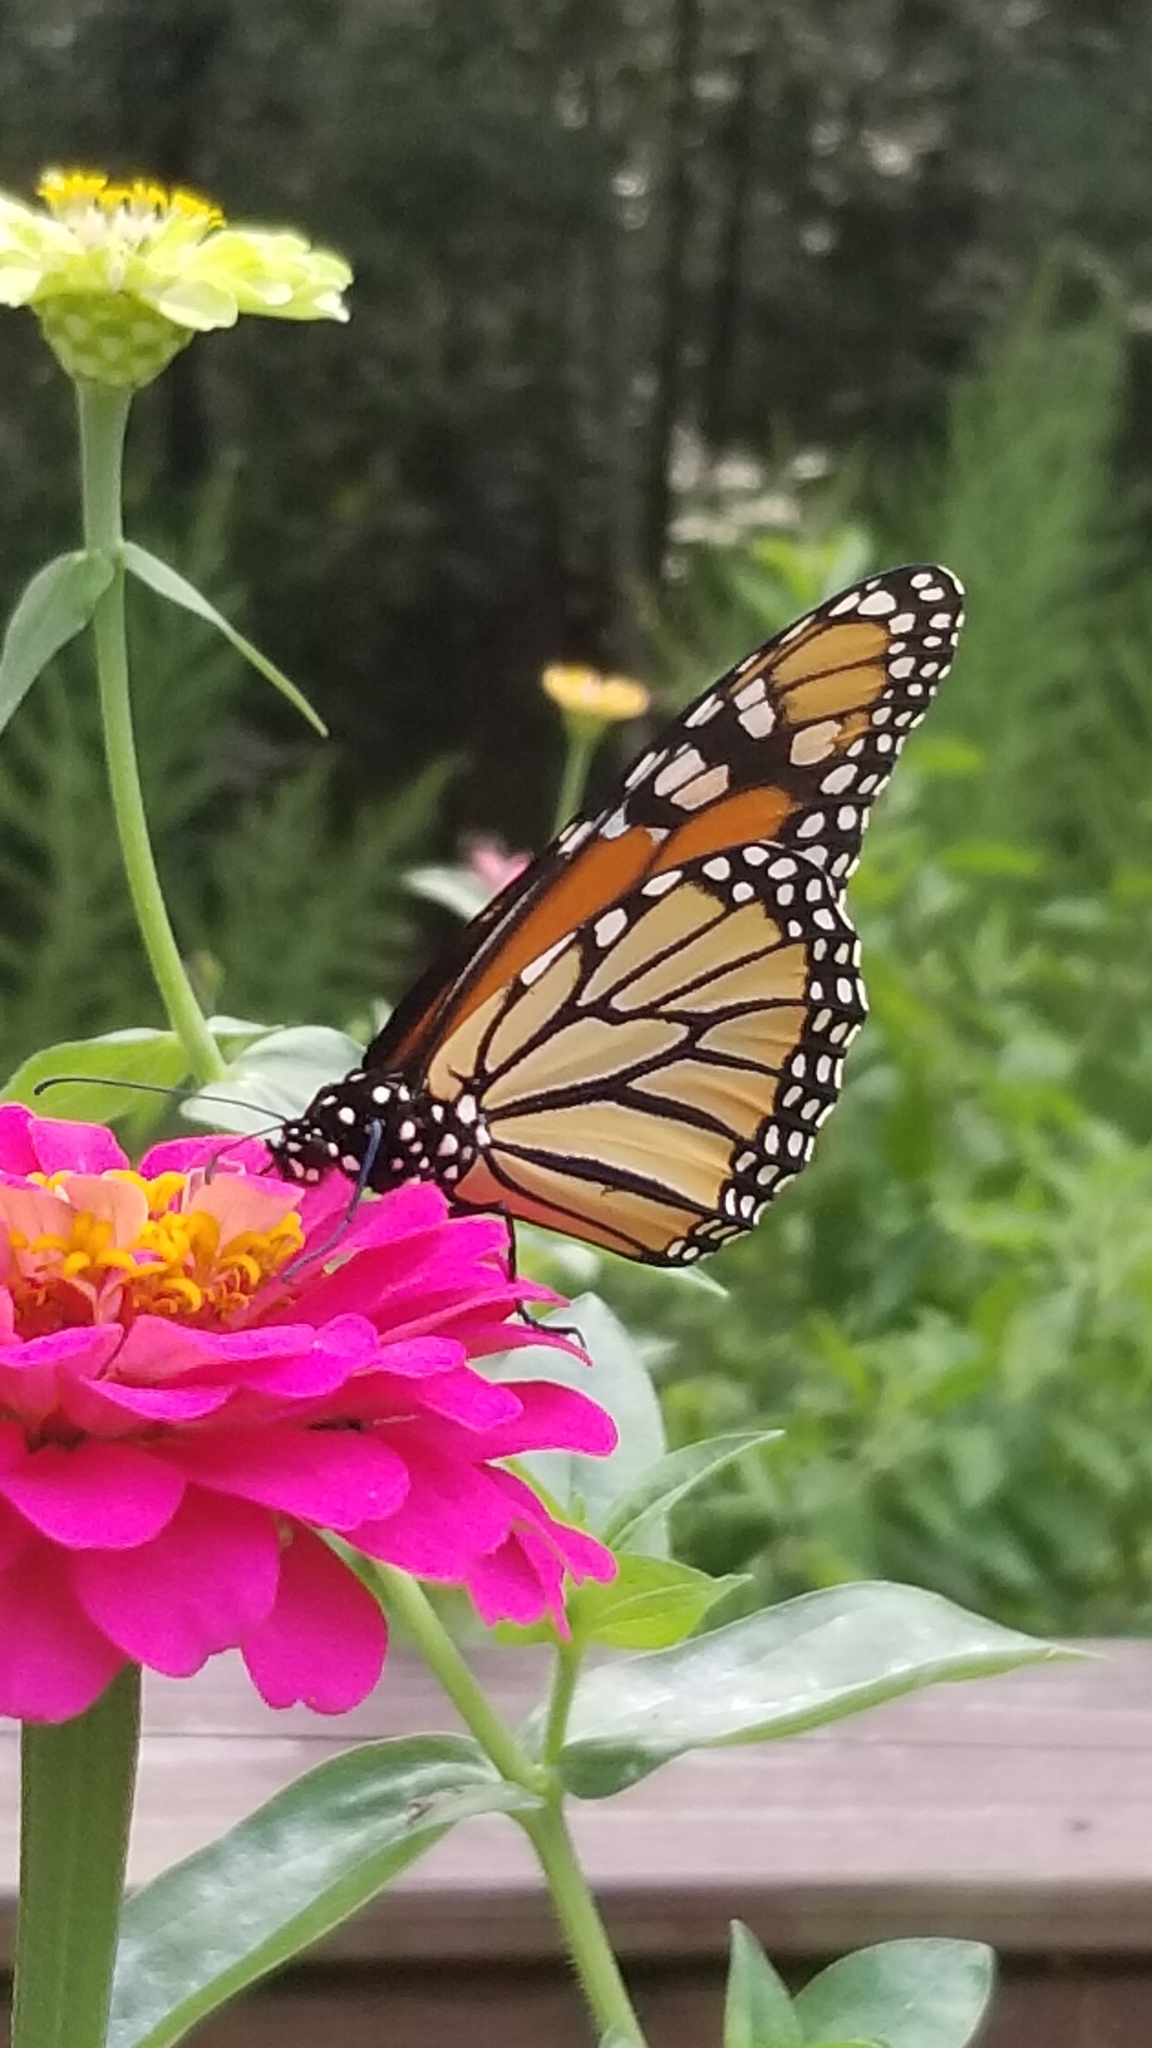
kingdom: Animalia
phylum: Arthropoda
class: Insecta
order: Lepidoptera
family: Nymphalidae
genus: Danaus
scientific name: Danaus plexippus
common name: Monarch
